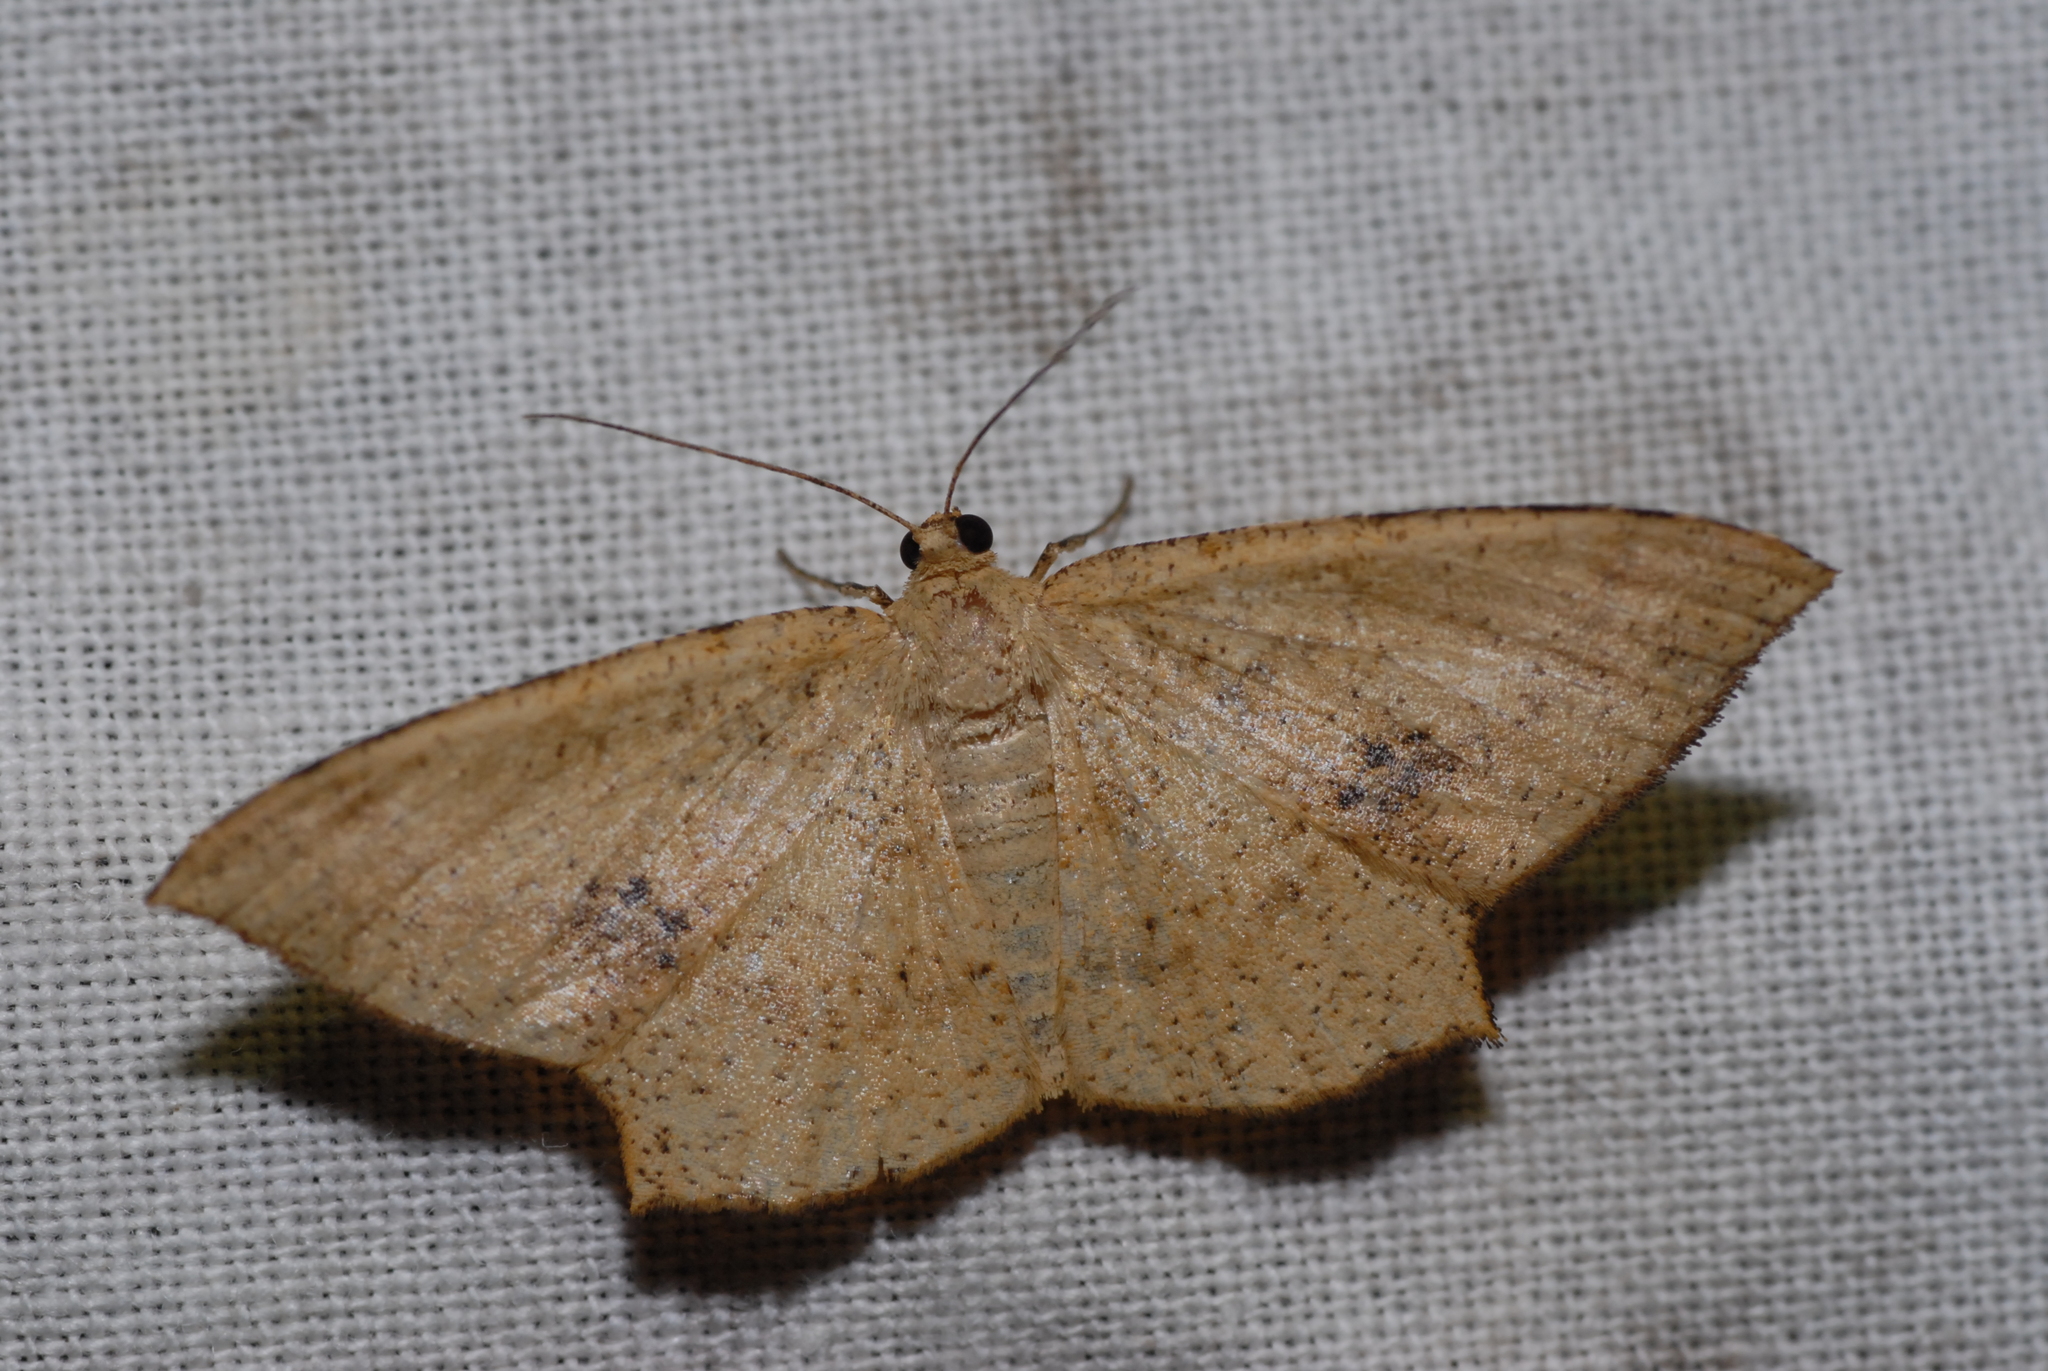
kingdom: Animalia
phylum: Arthropoda
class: Insecta
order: Lepidoptera
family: Geometridae
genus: Krananda
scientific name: Krananda falcata
